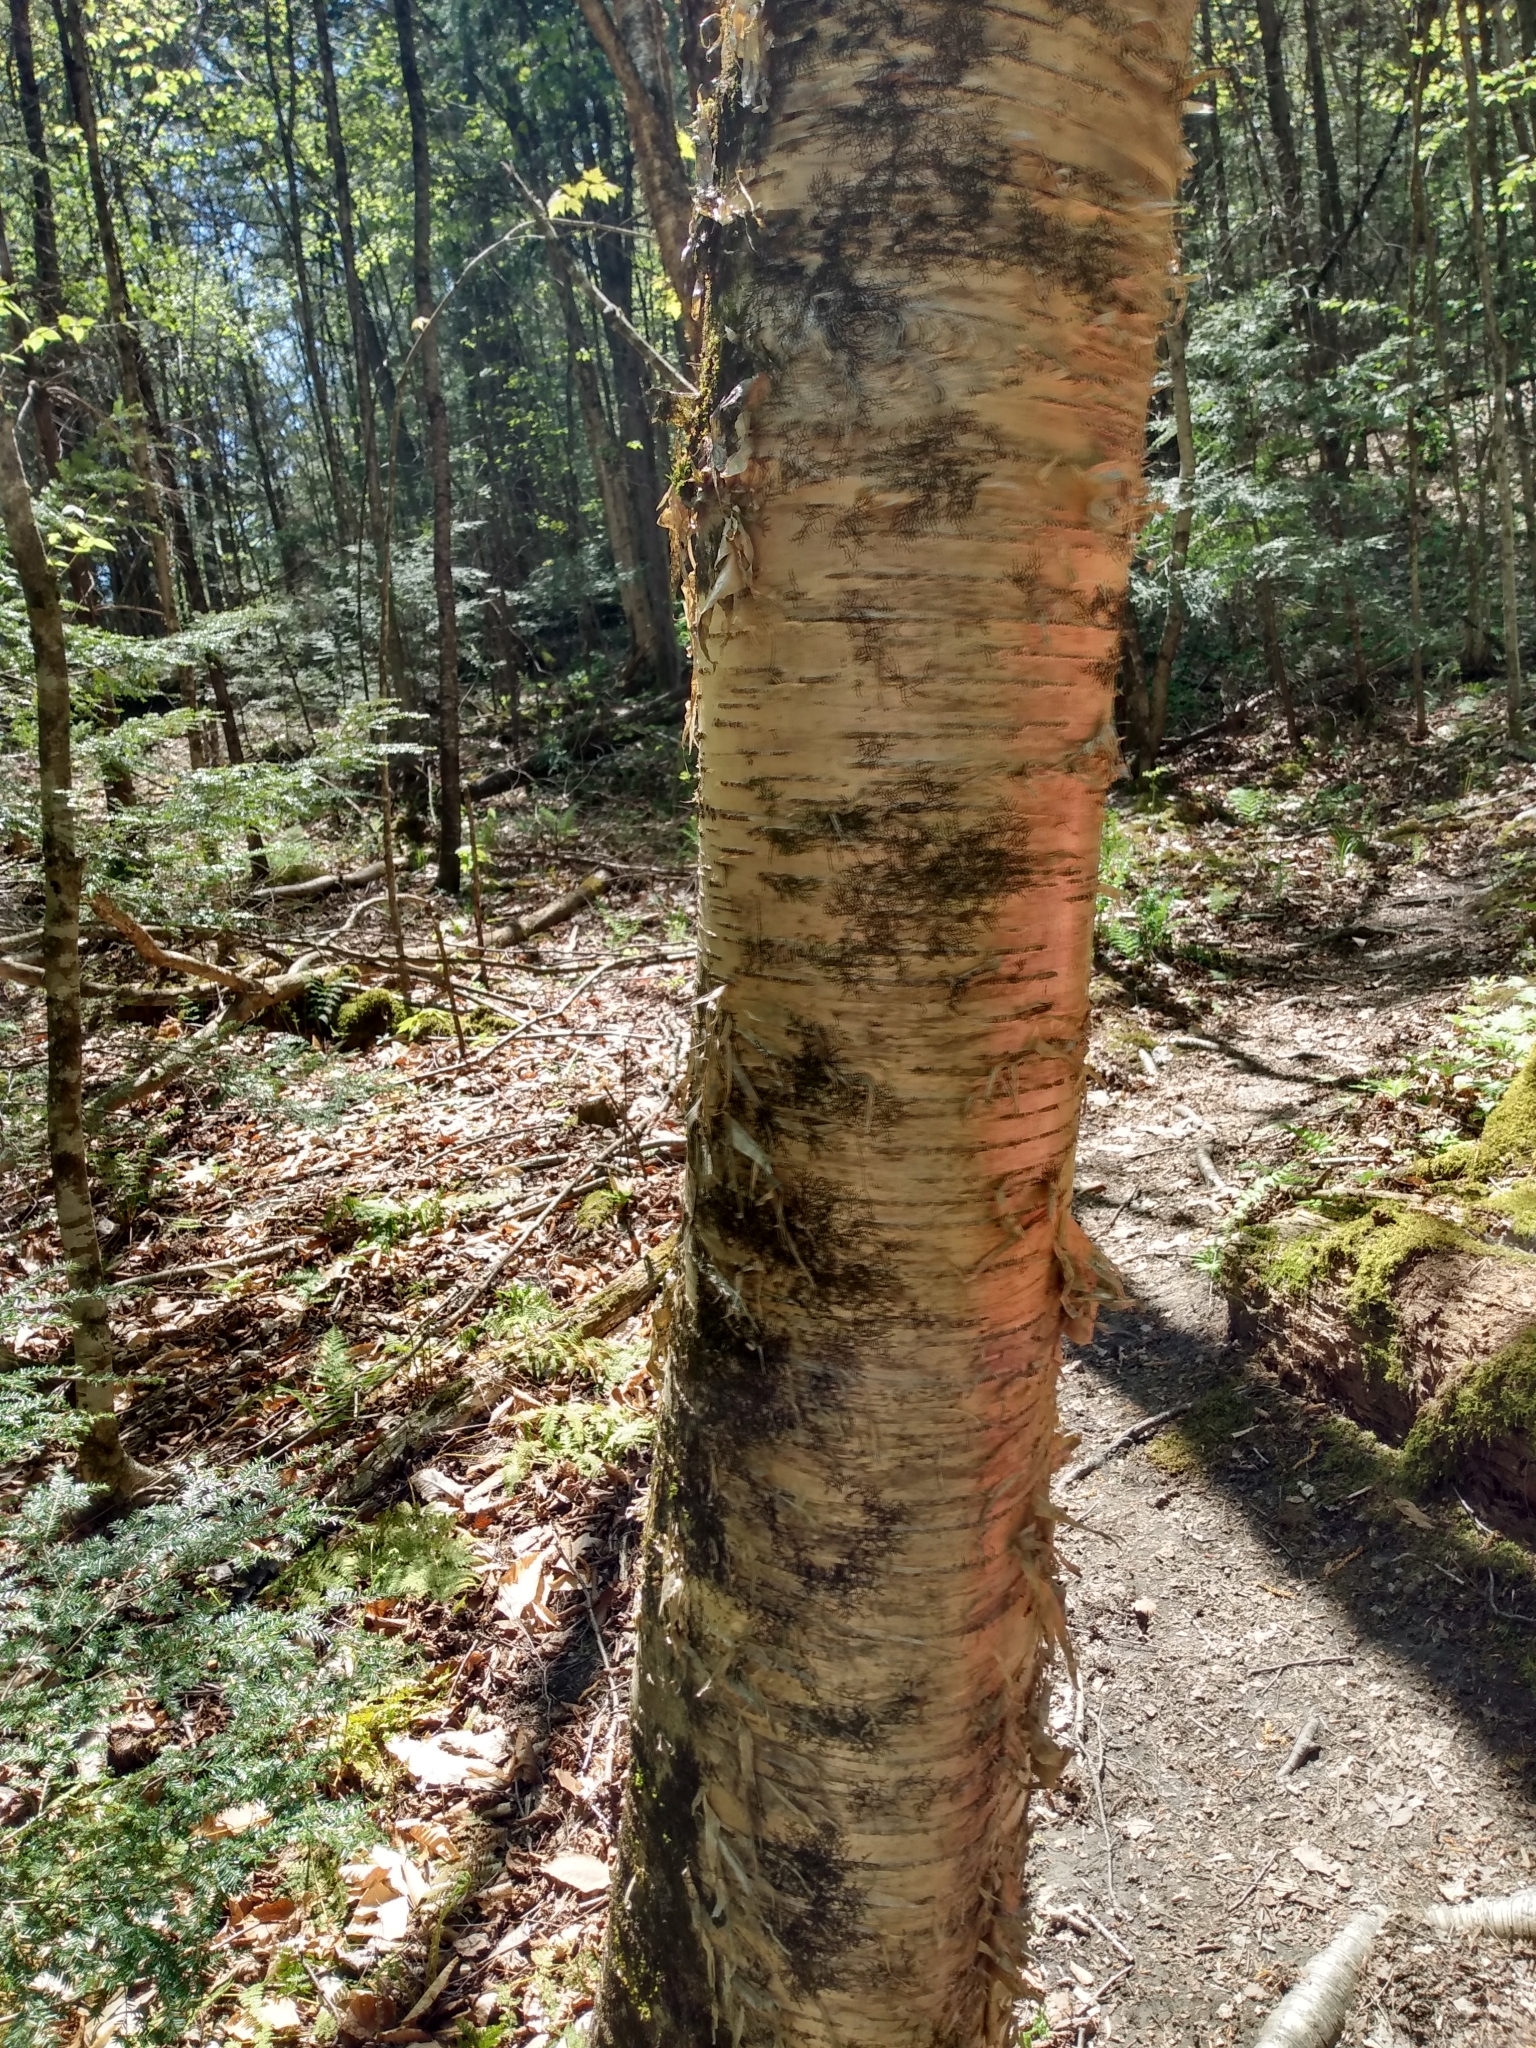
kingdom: Plantae
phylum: Tracheophyta
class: Magnoliopsida
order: Fagales
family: Betulaceae
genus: Betula
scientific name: Betula alleghaniensis
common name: Yellow birch
